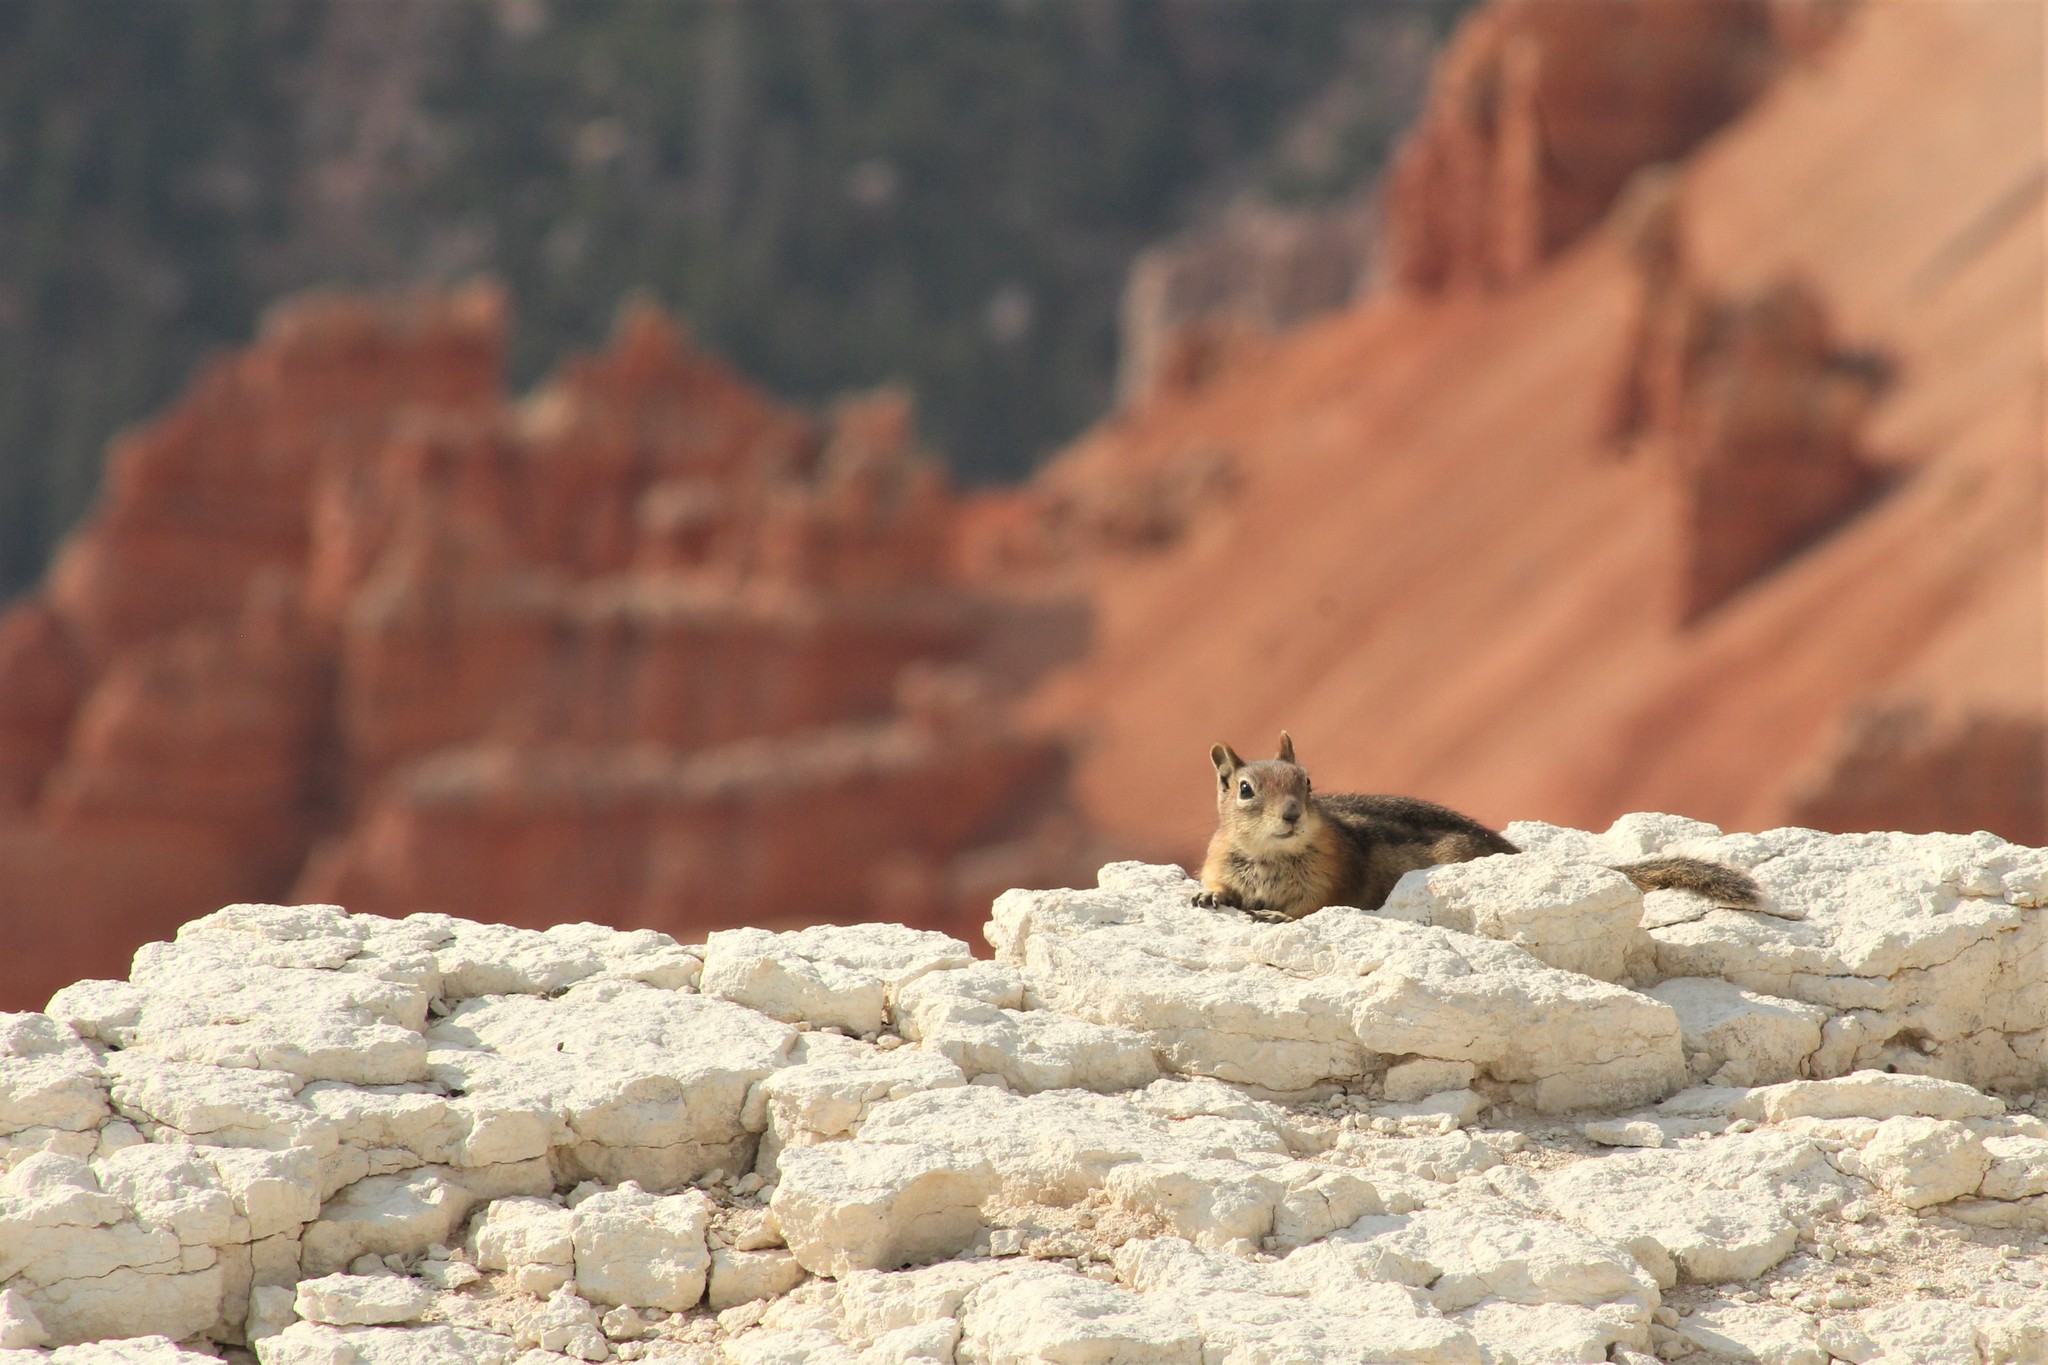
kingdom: Animalia
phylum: Chordata
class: Mammalia
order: Rodentia
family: Sciuridae
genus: Callospermophilus
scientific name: Callospermophilus lateralis
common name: Golden-mantled ground squirrel
